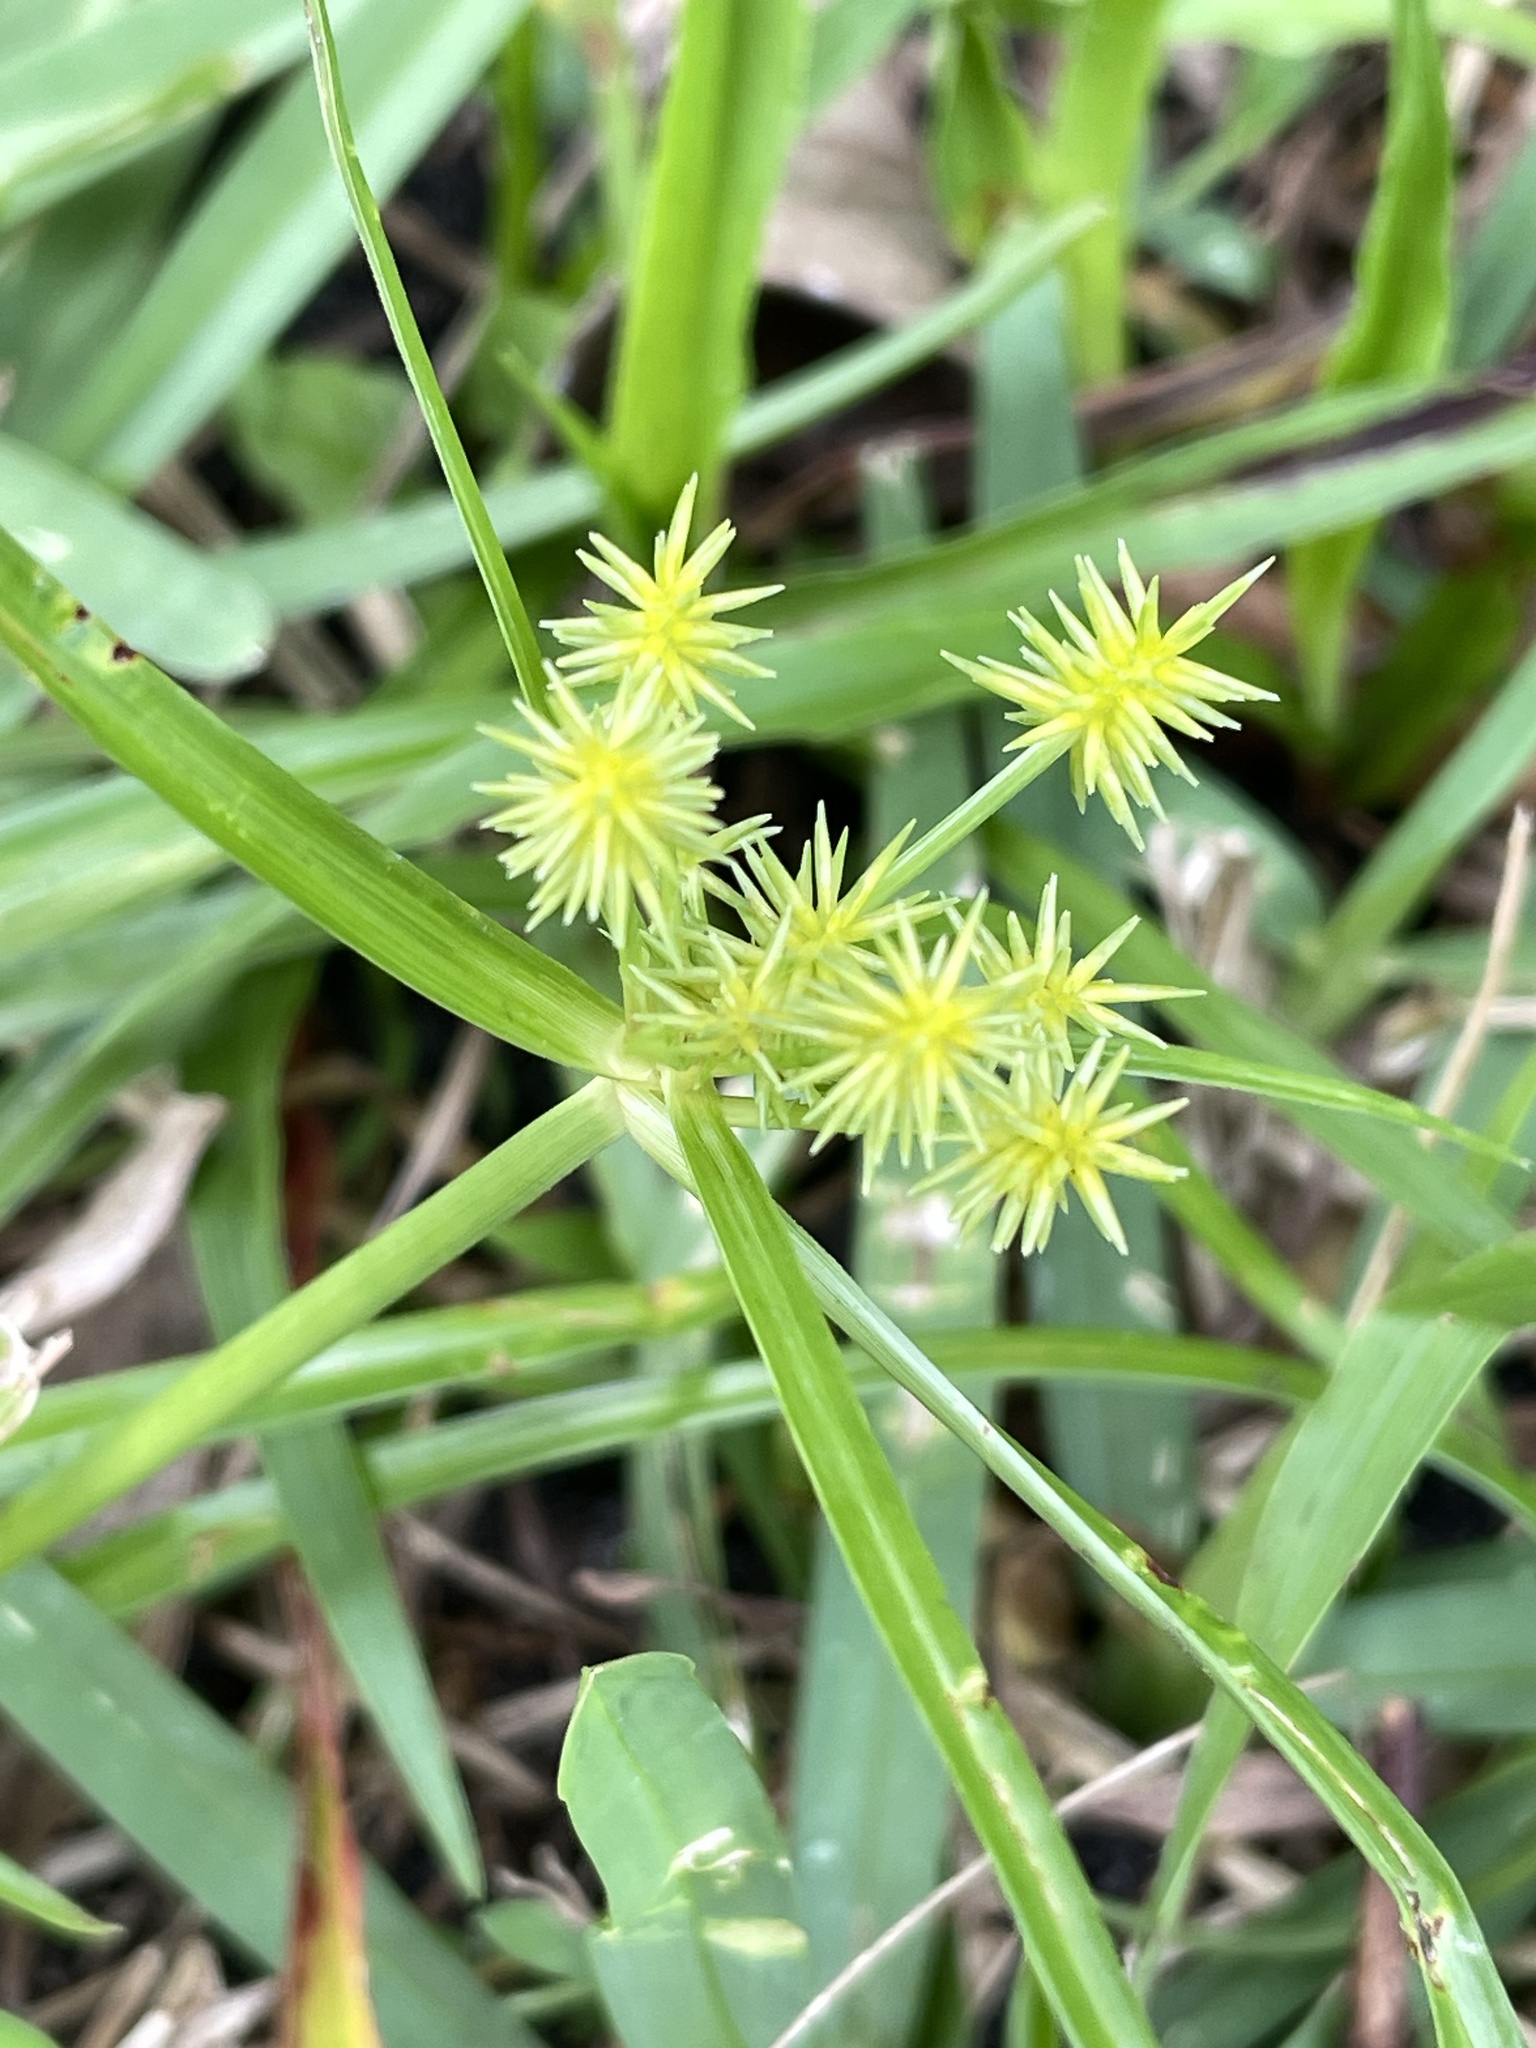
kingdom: Plantae
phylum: Tracheophyta
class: Liliopsida
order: Poales
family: Cyperaceae
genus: Cyperus
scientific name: Cyperus croceus
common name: Baldwin's flatsedge
